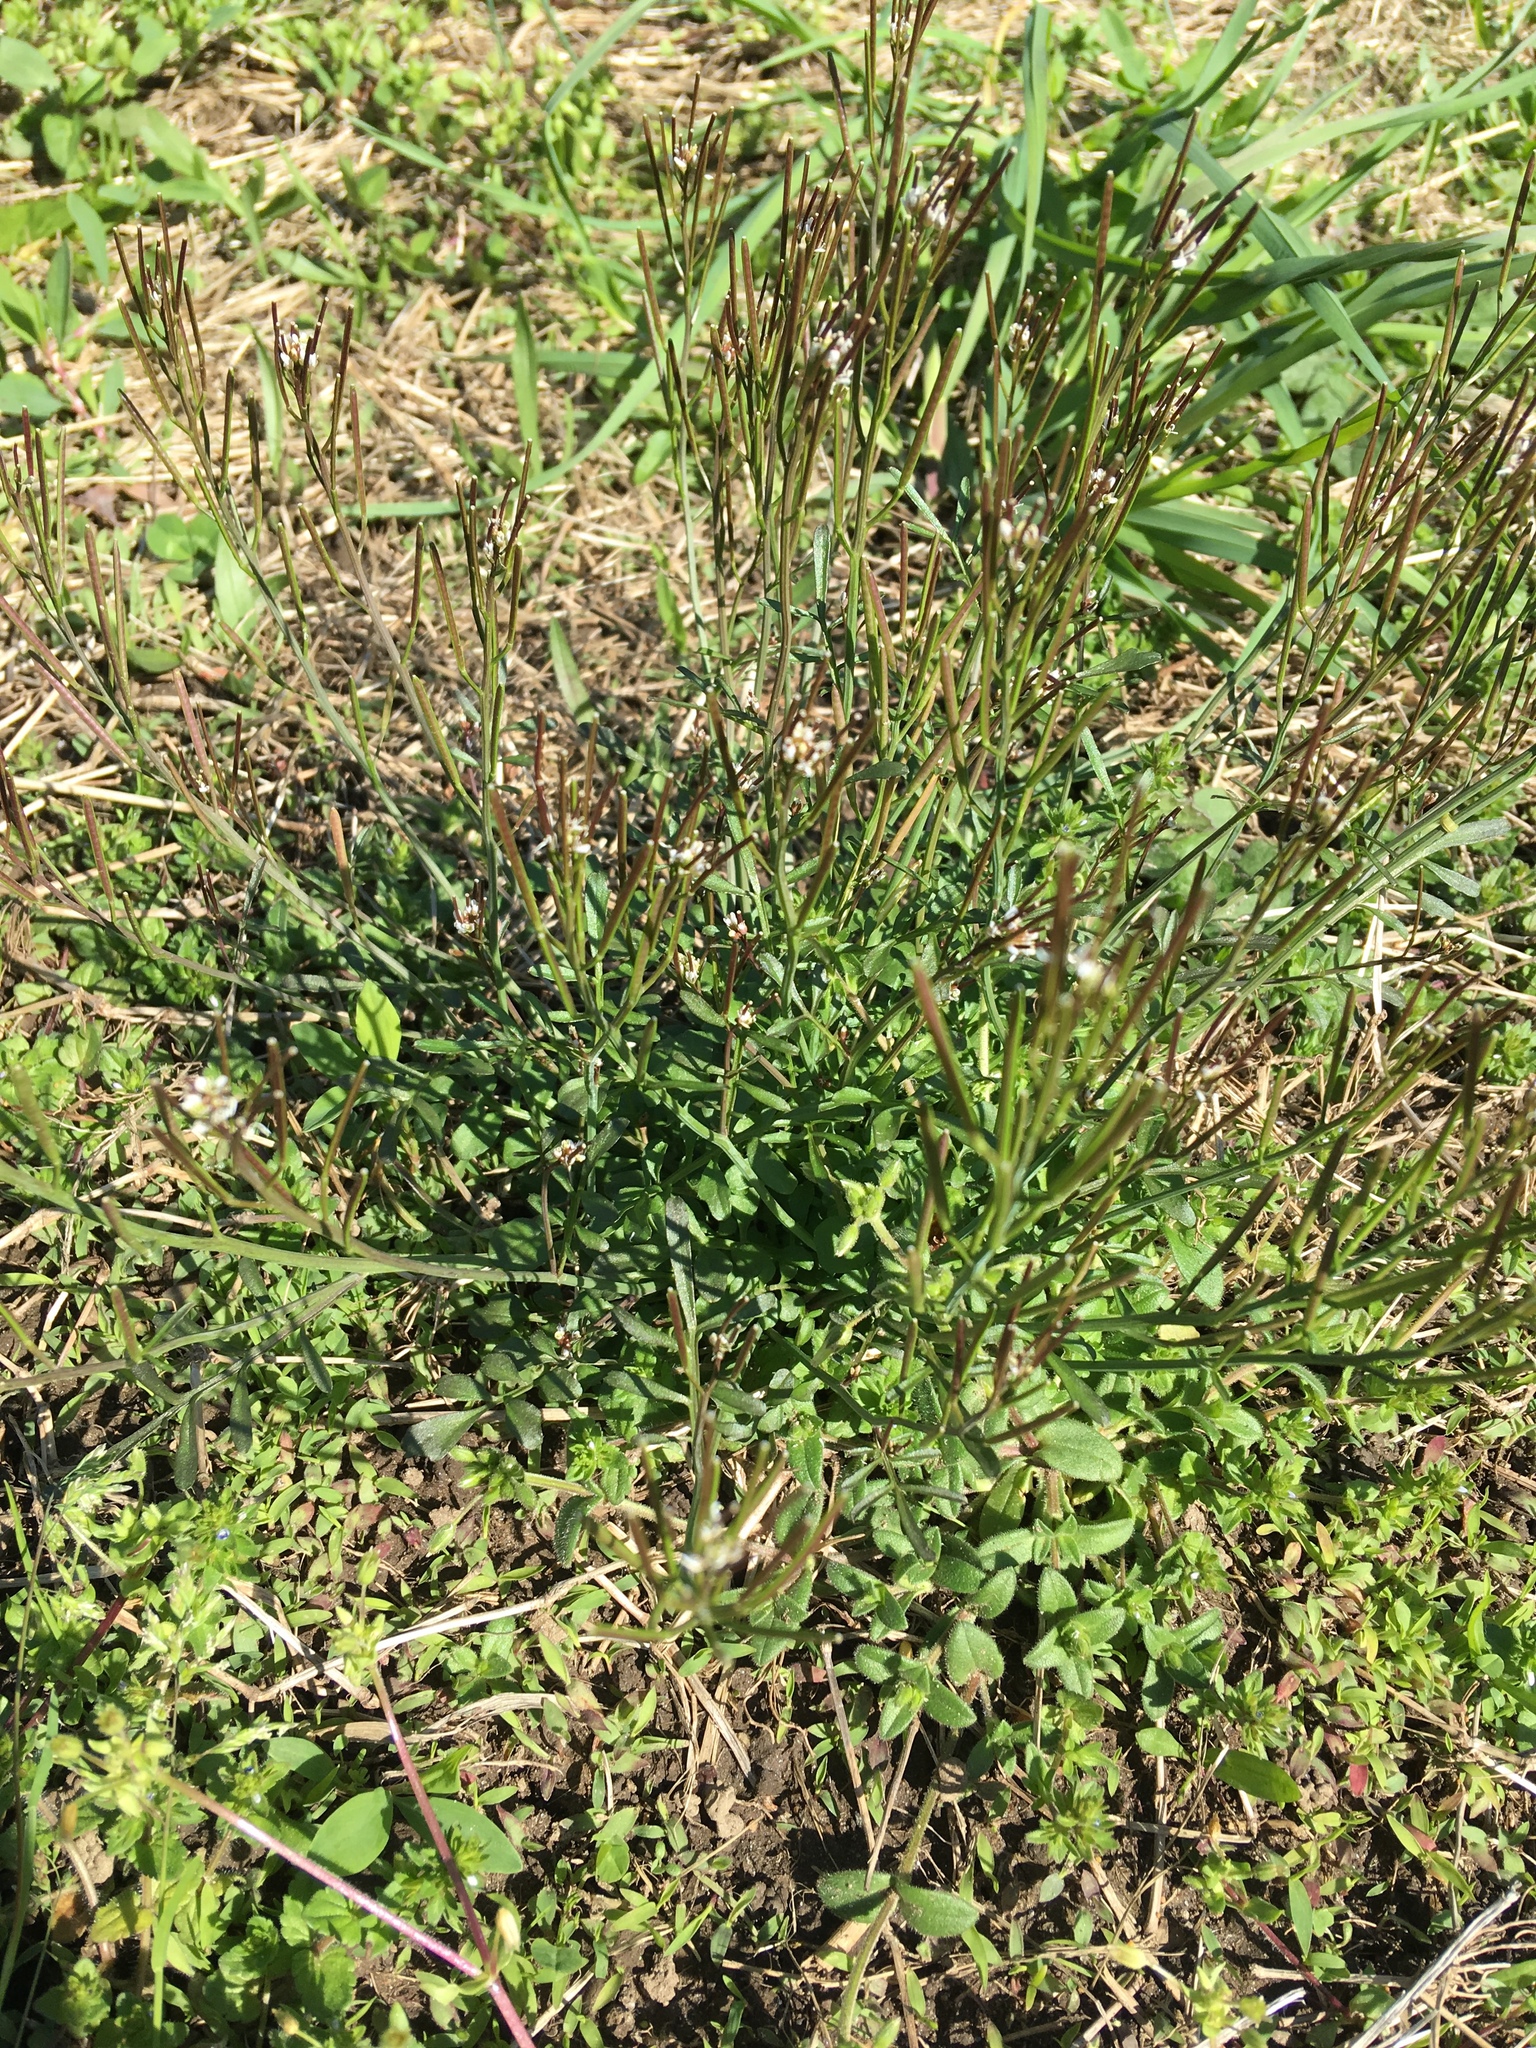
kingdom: Plantae
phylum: Tracheophyta
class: Magnoliopsida
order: Brassicales
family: Brassicaceae
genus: Cardamine
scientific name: Cardamine hirsuta
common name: Hairy bittercress
